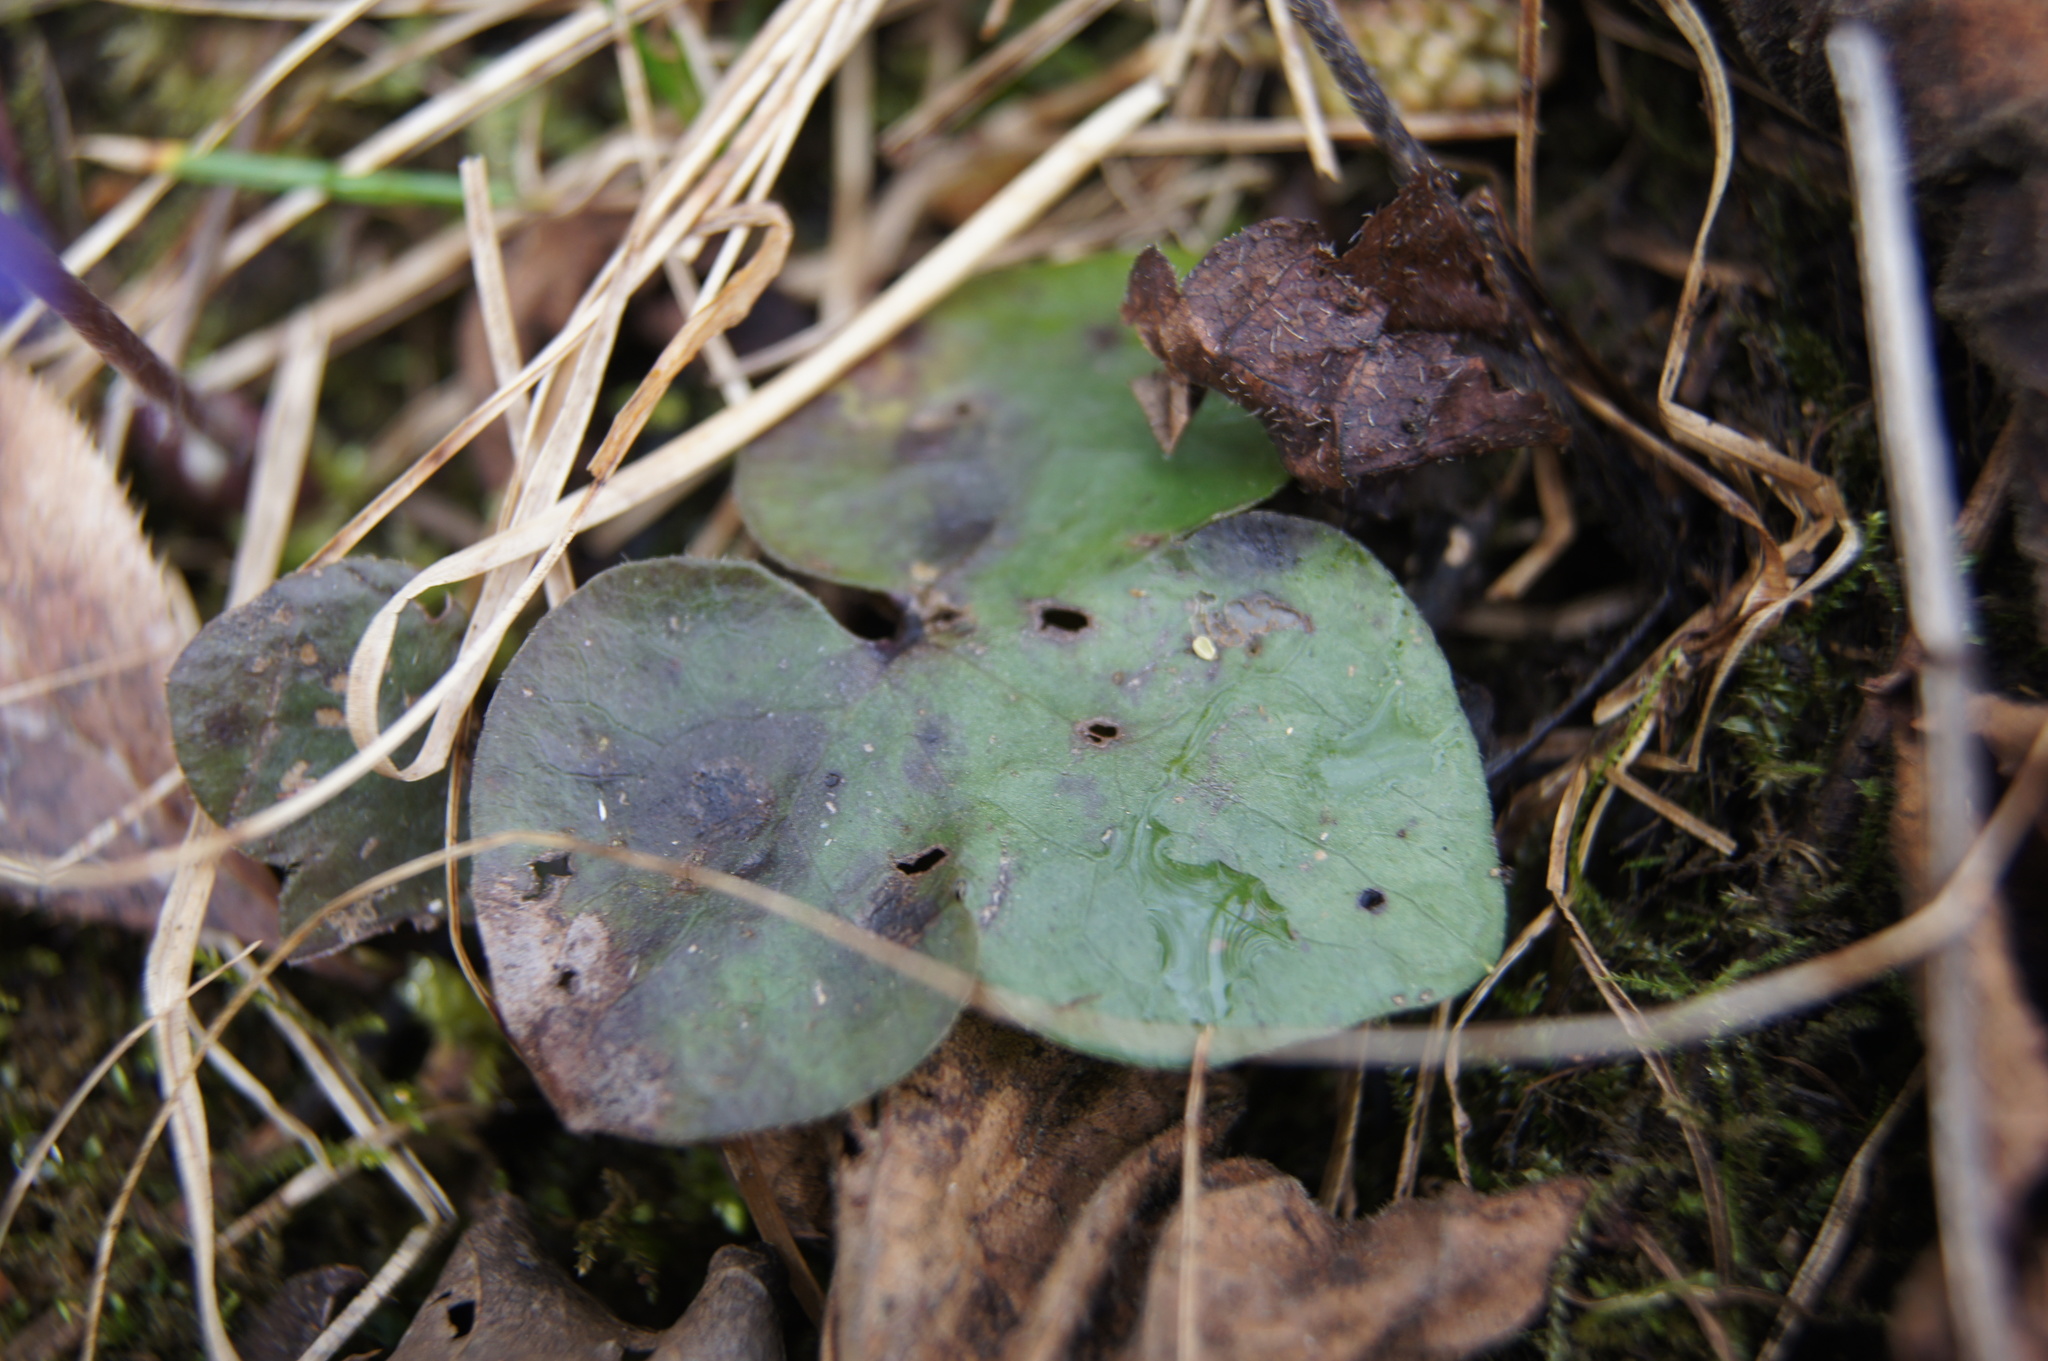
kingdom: Plantae
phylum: Tracheophyta
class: Magnoliopsida
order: Ranunculales
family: Ranunculaceae
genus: Hepatica
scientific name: Hepatica nobilis
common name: Liverleaf
